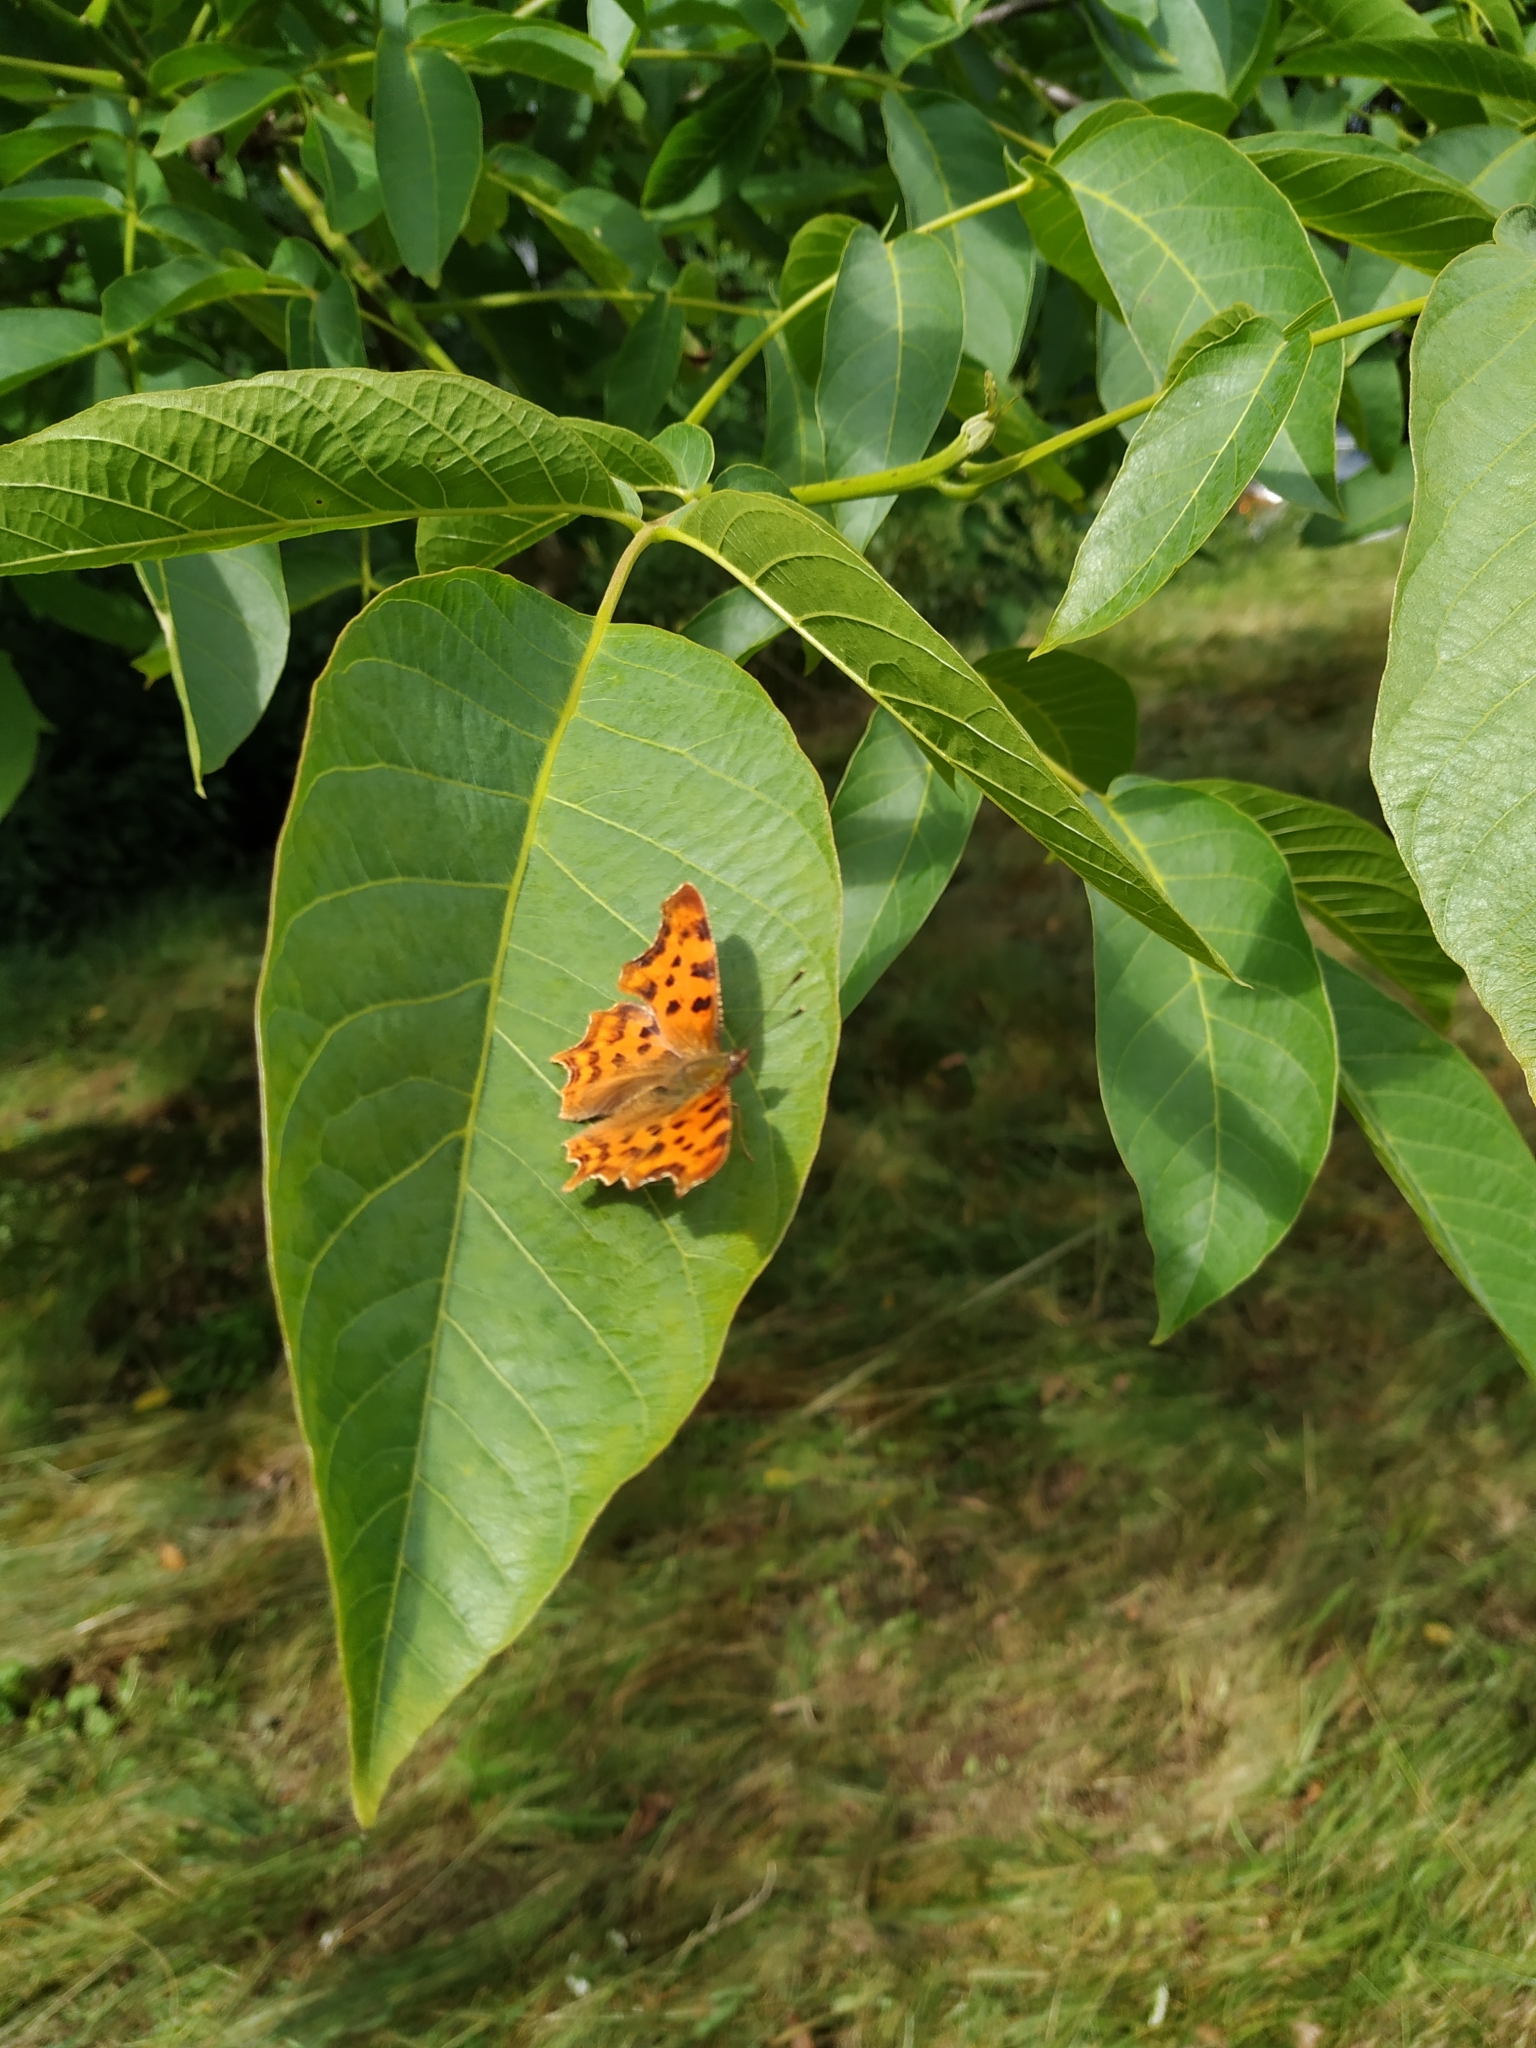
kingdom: Animalia
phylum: Arthropoda
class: Insecta
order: Lepidoptera
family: Nymphalidae
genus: Polygonia
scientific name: Polygonia c-album
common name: Comma
